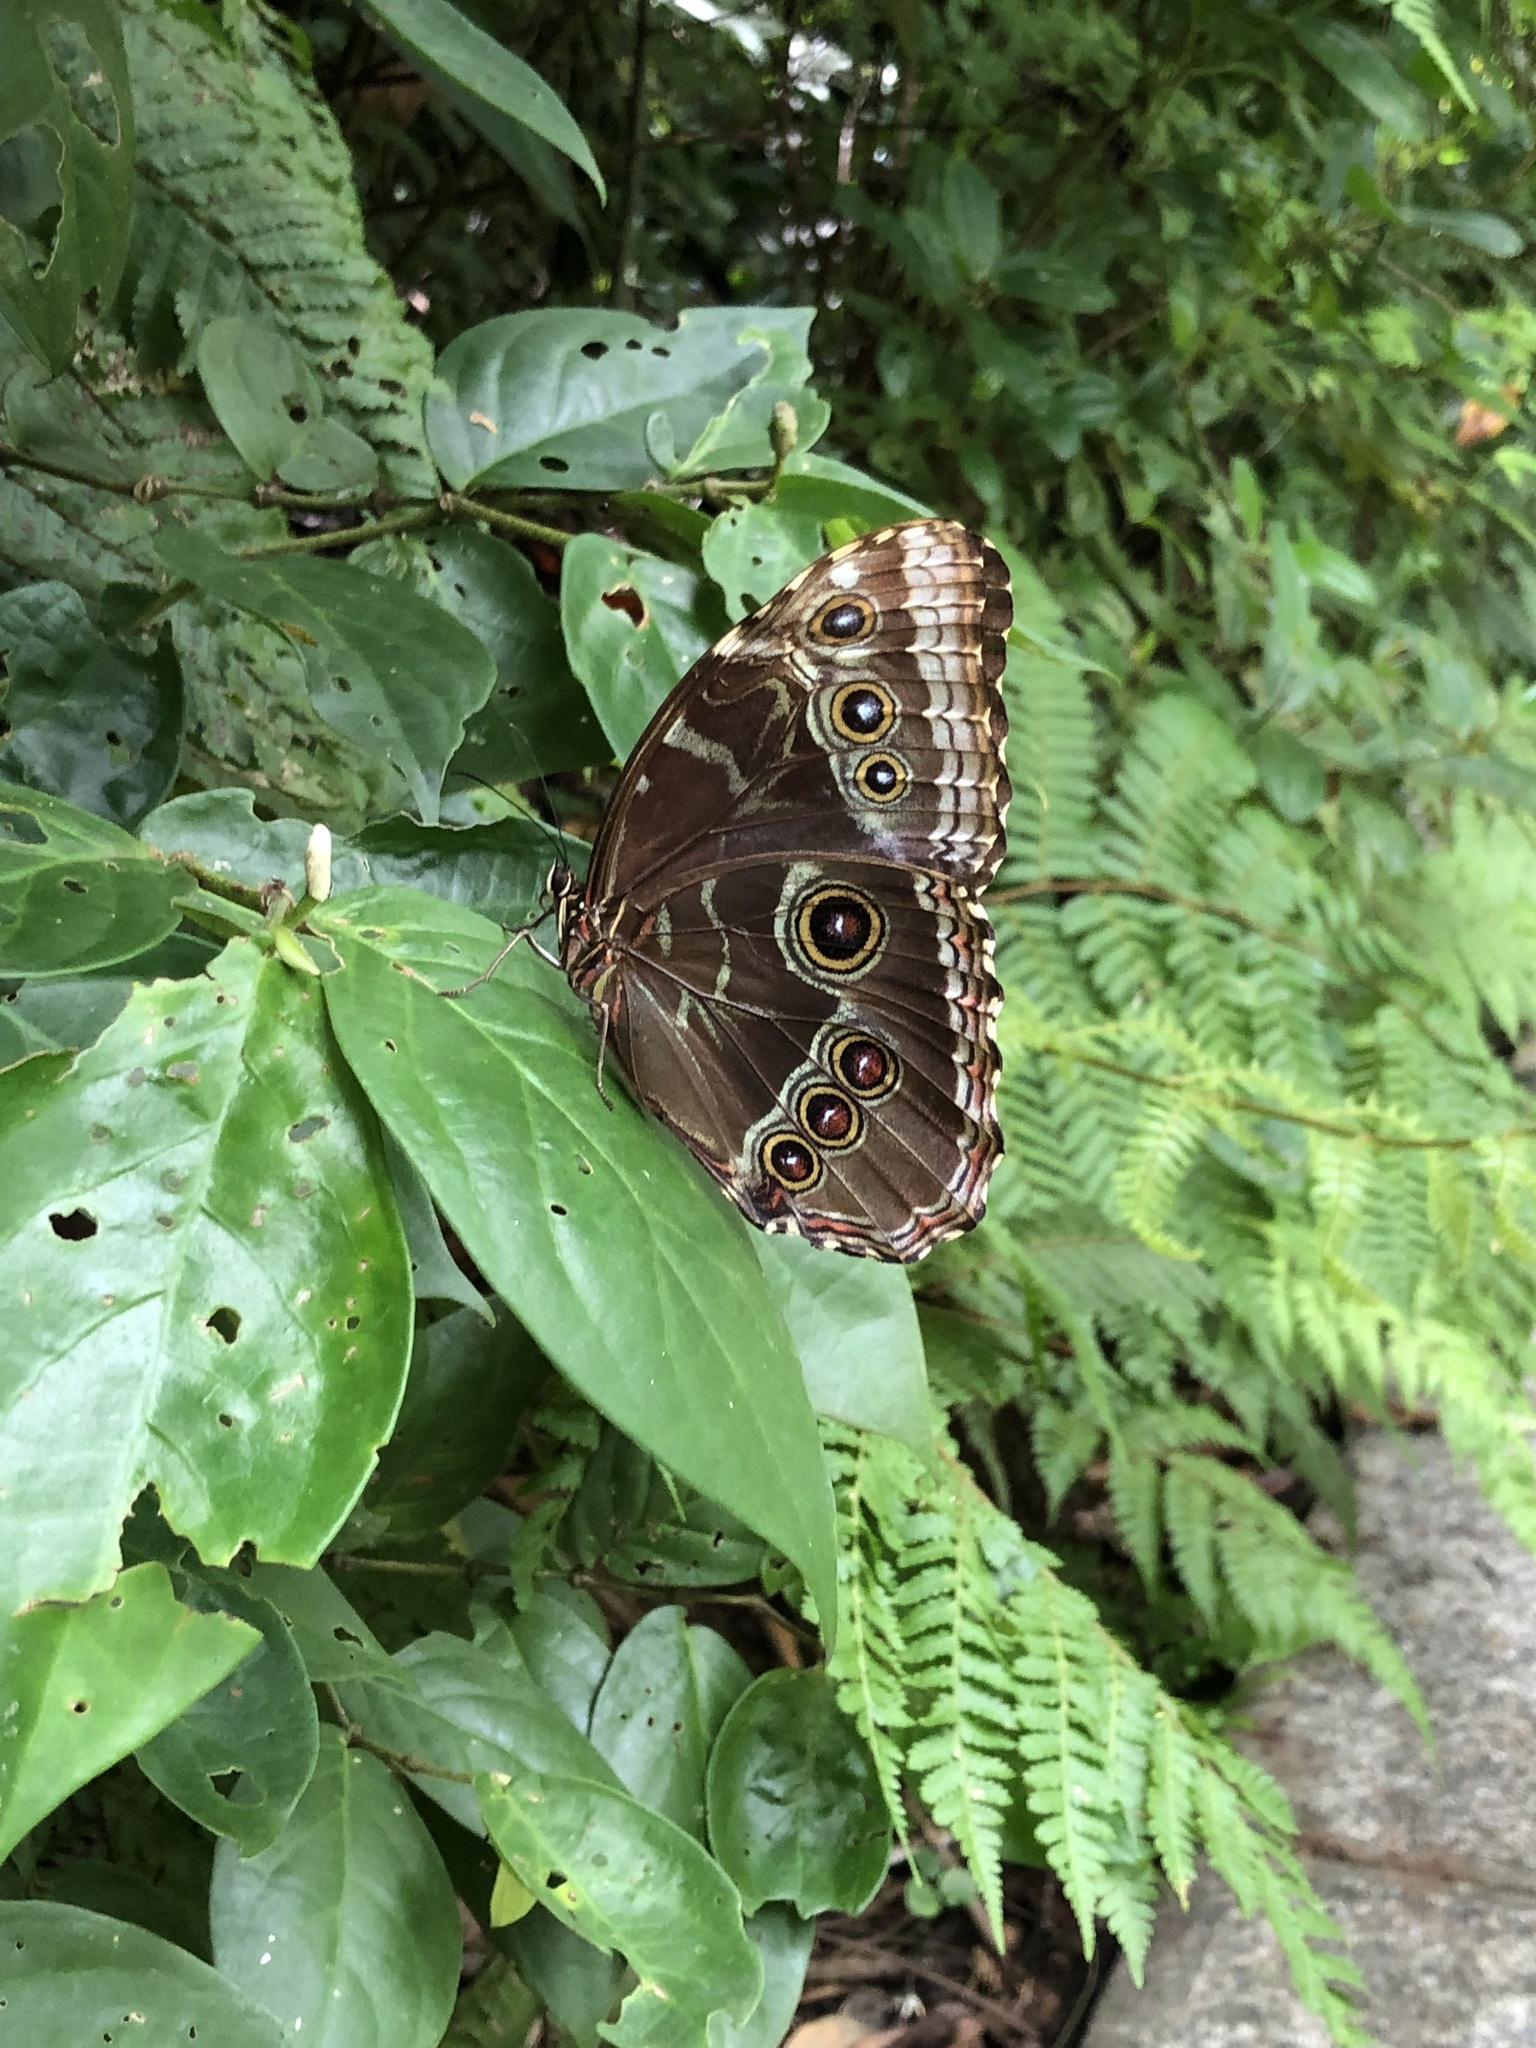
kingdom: Animalia
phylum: Arthropoda
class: Insecta
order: Lepidoptera
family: Nymphalidae
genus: Morpho
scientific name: Morpho helenor
